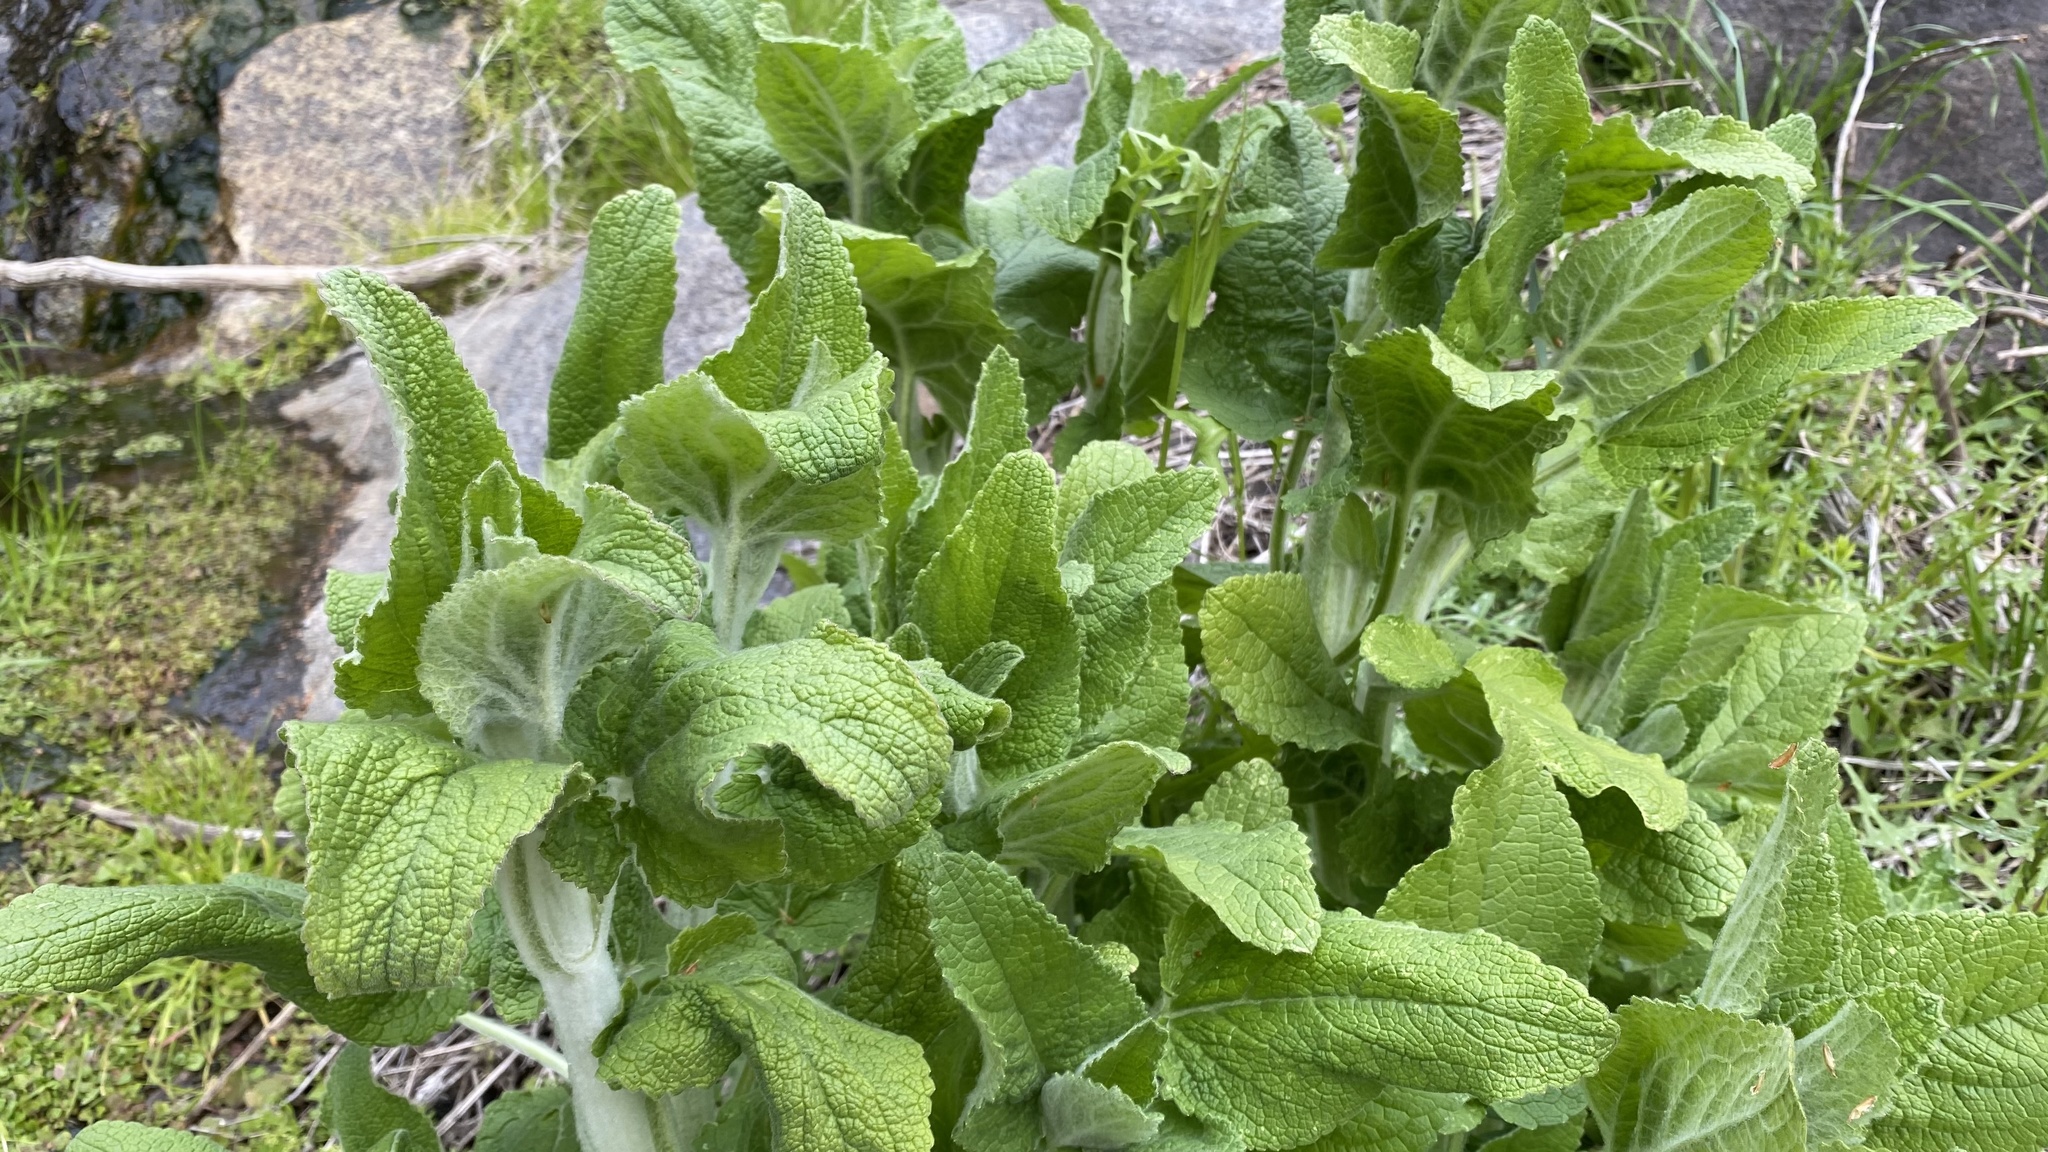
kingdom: Plantae
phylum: Tracheophyta
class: Magnoliopsida
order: Lamiales
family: Lamiaceae
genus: Stachys
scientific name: Stachys albens
